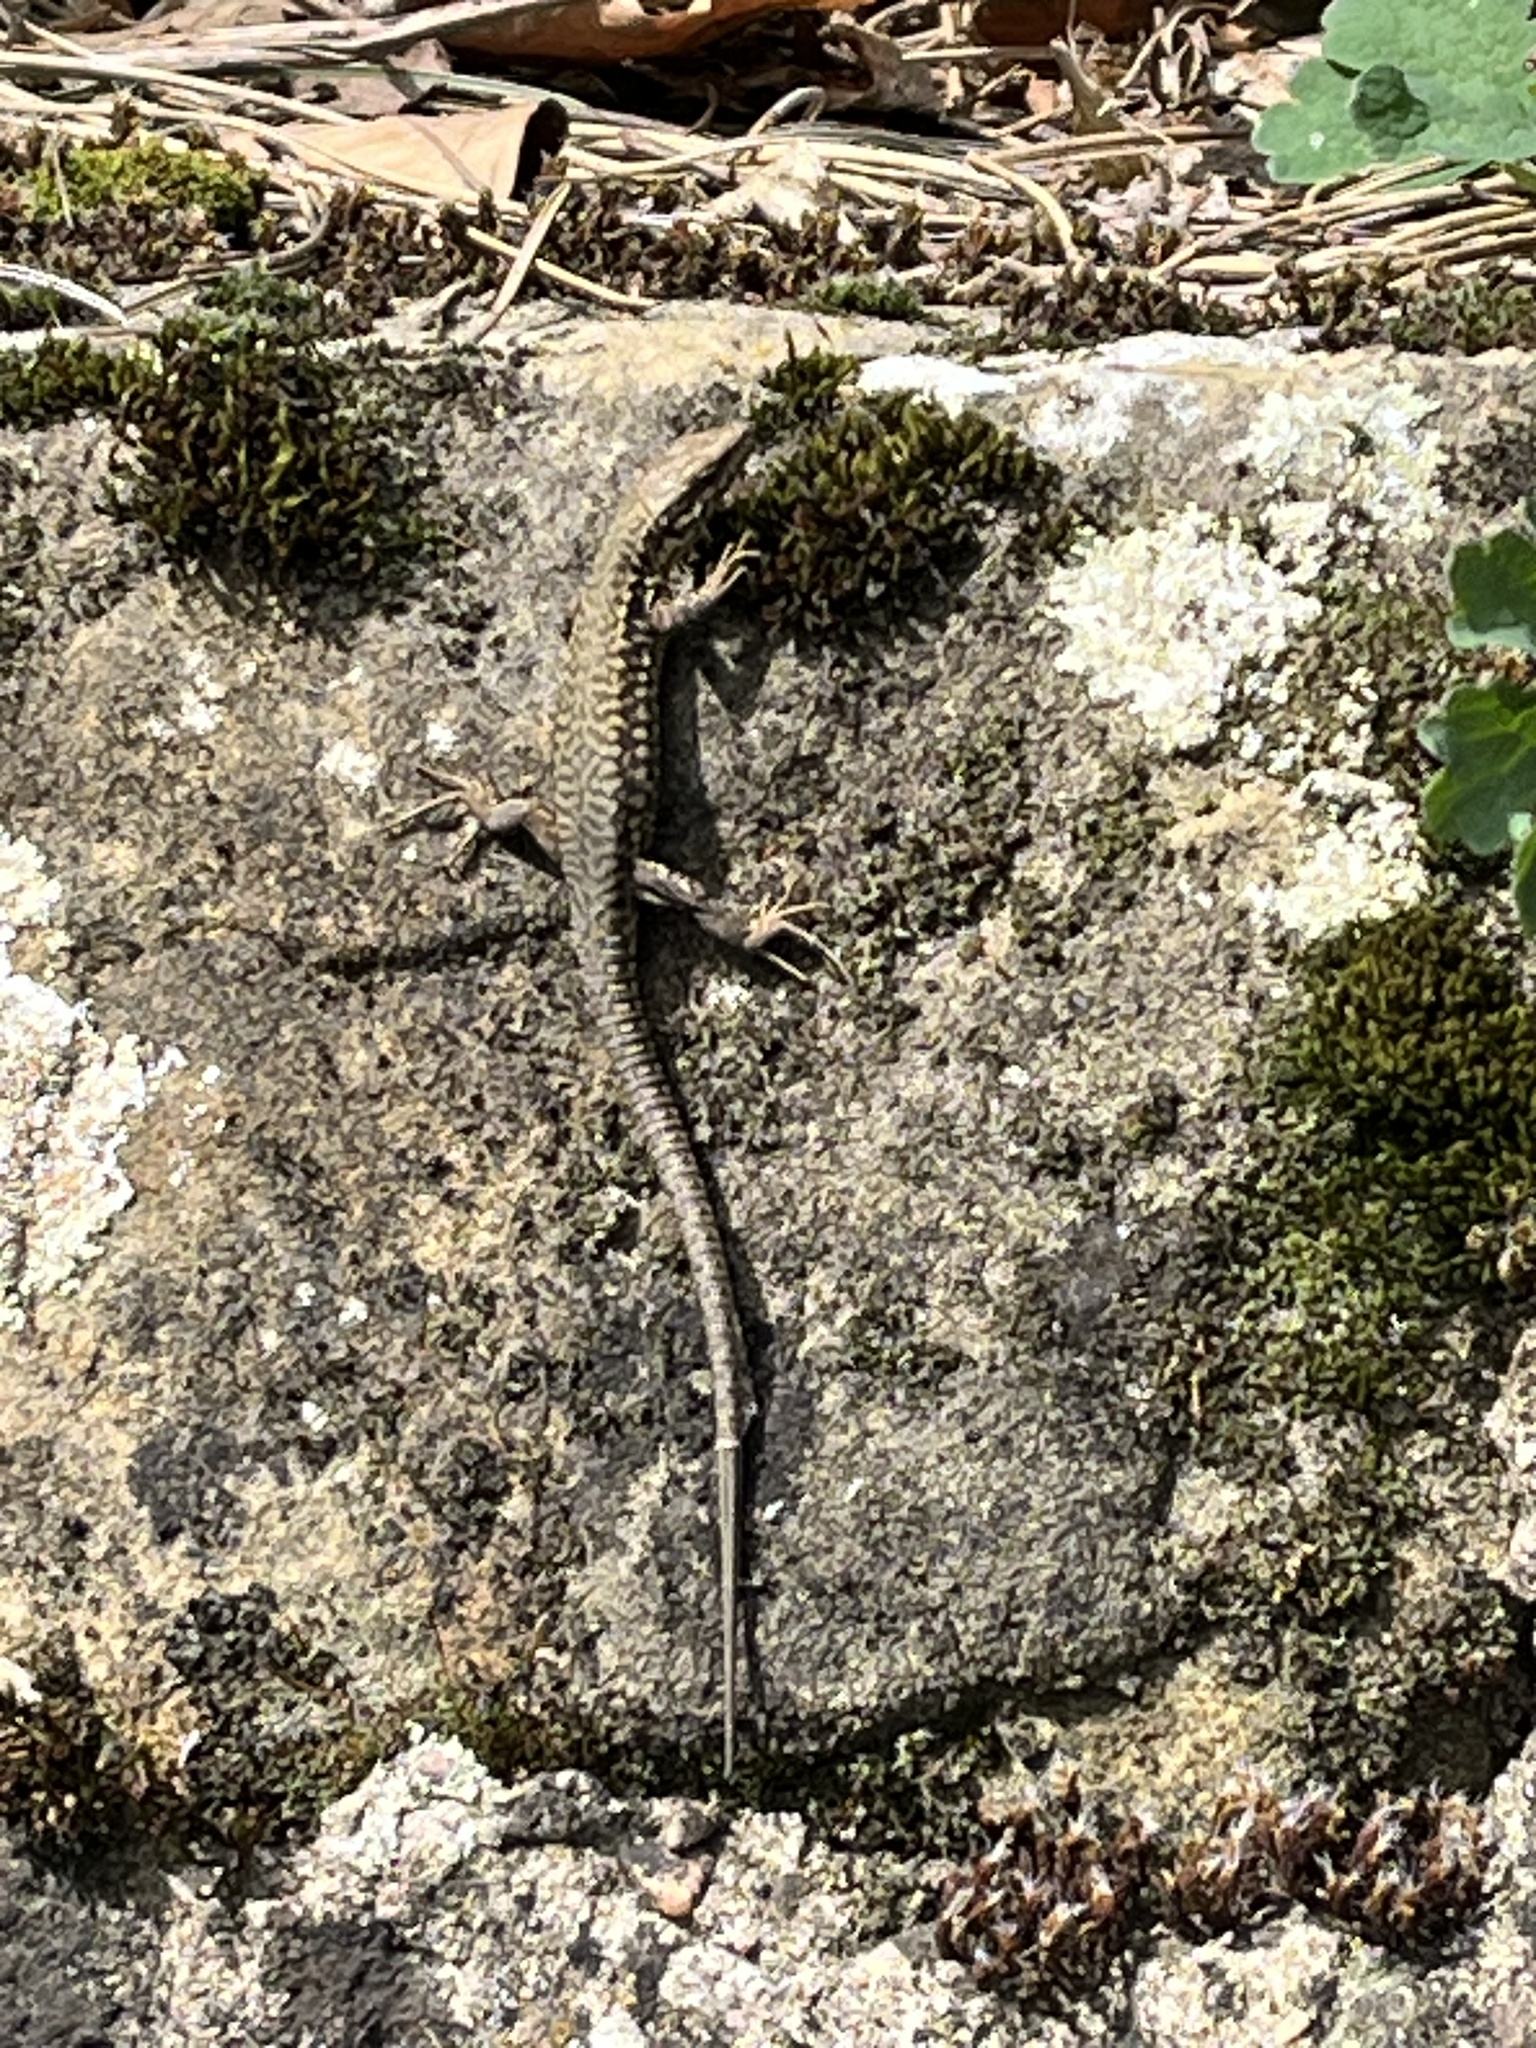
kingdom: Animalia
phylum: Chordata
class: Squamata
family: Lacertidae
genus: Podarcis
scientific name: Podarcis muralis
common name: Common wall lizard
